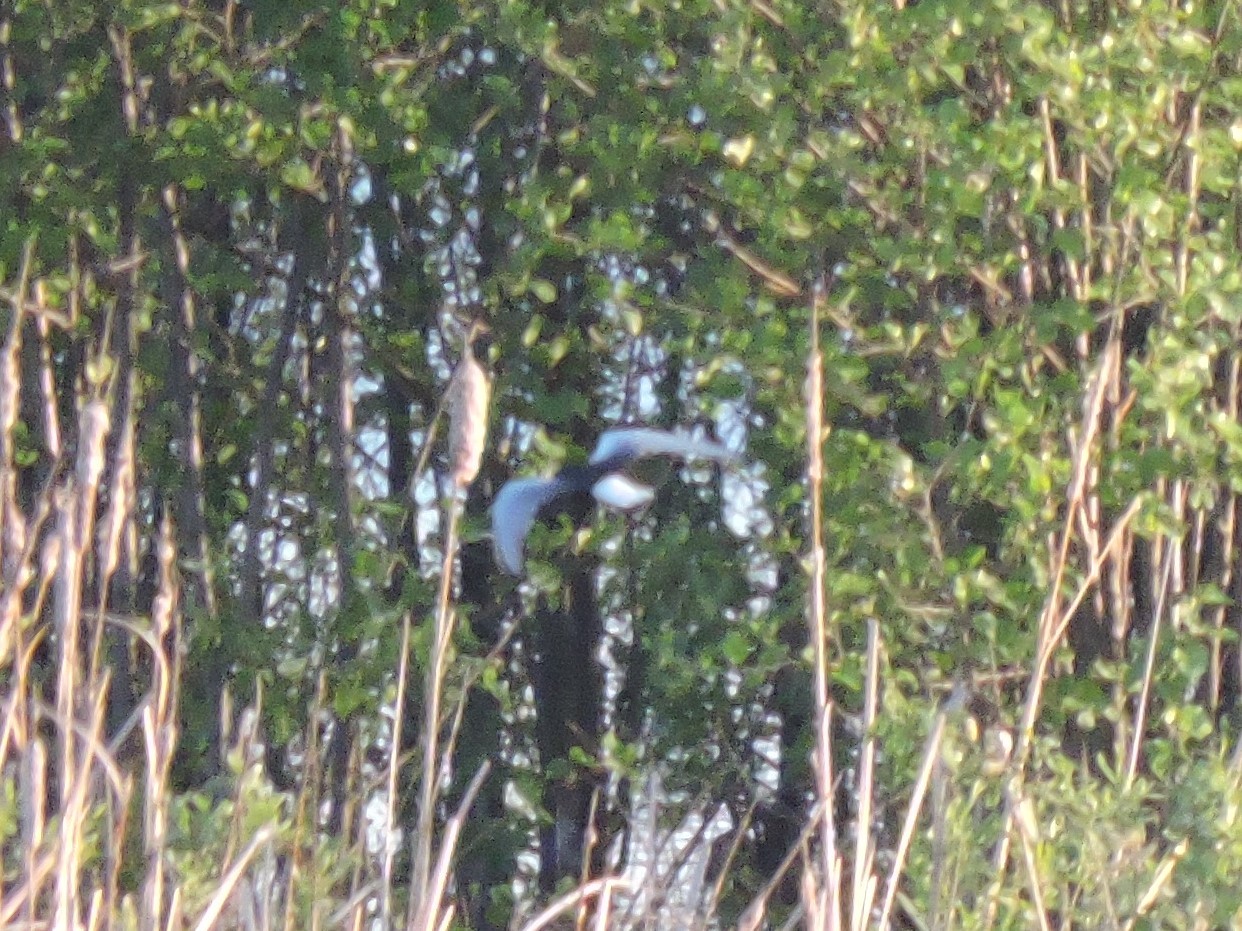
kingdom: Animalia
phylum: Chordata
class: Aves
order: Charadriiformes
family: Laridae
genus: Chlidonias
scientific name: Chlidonias leucopterus
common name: White-winged tern
